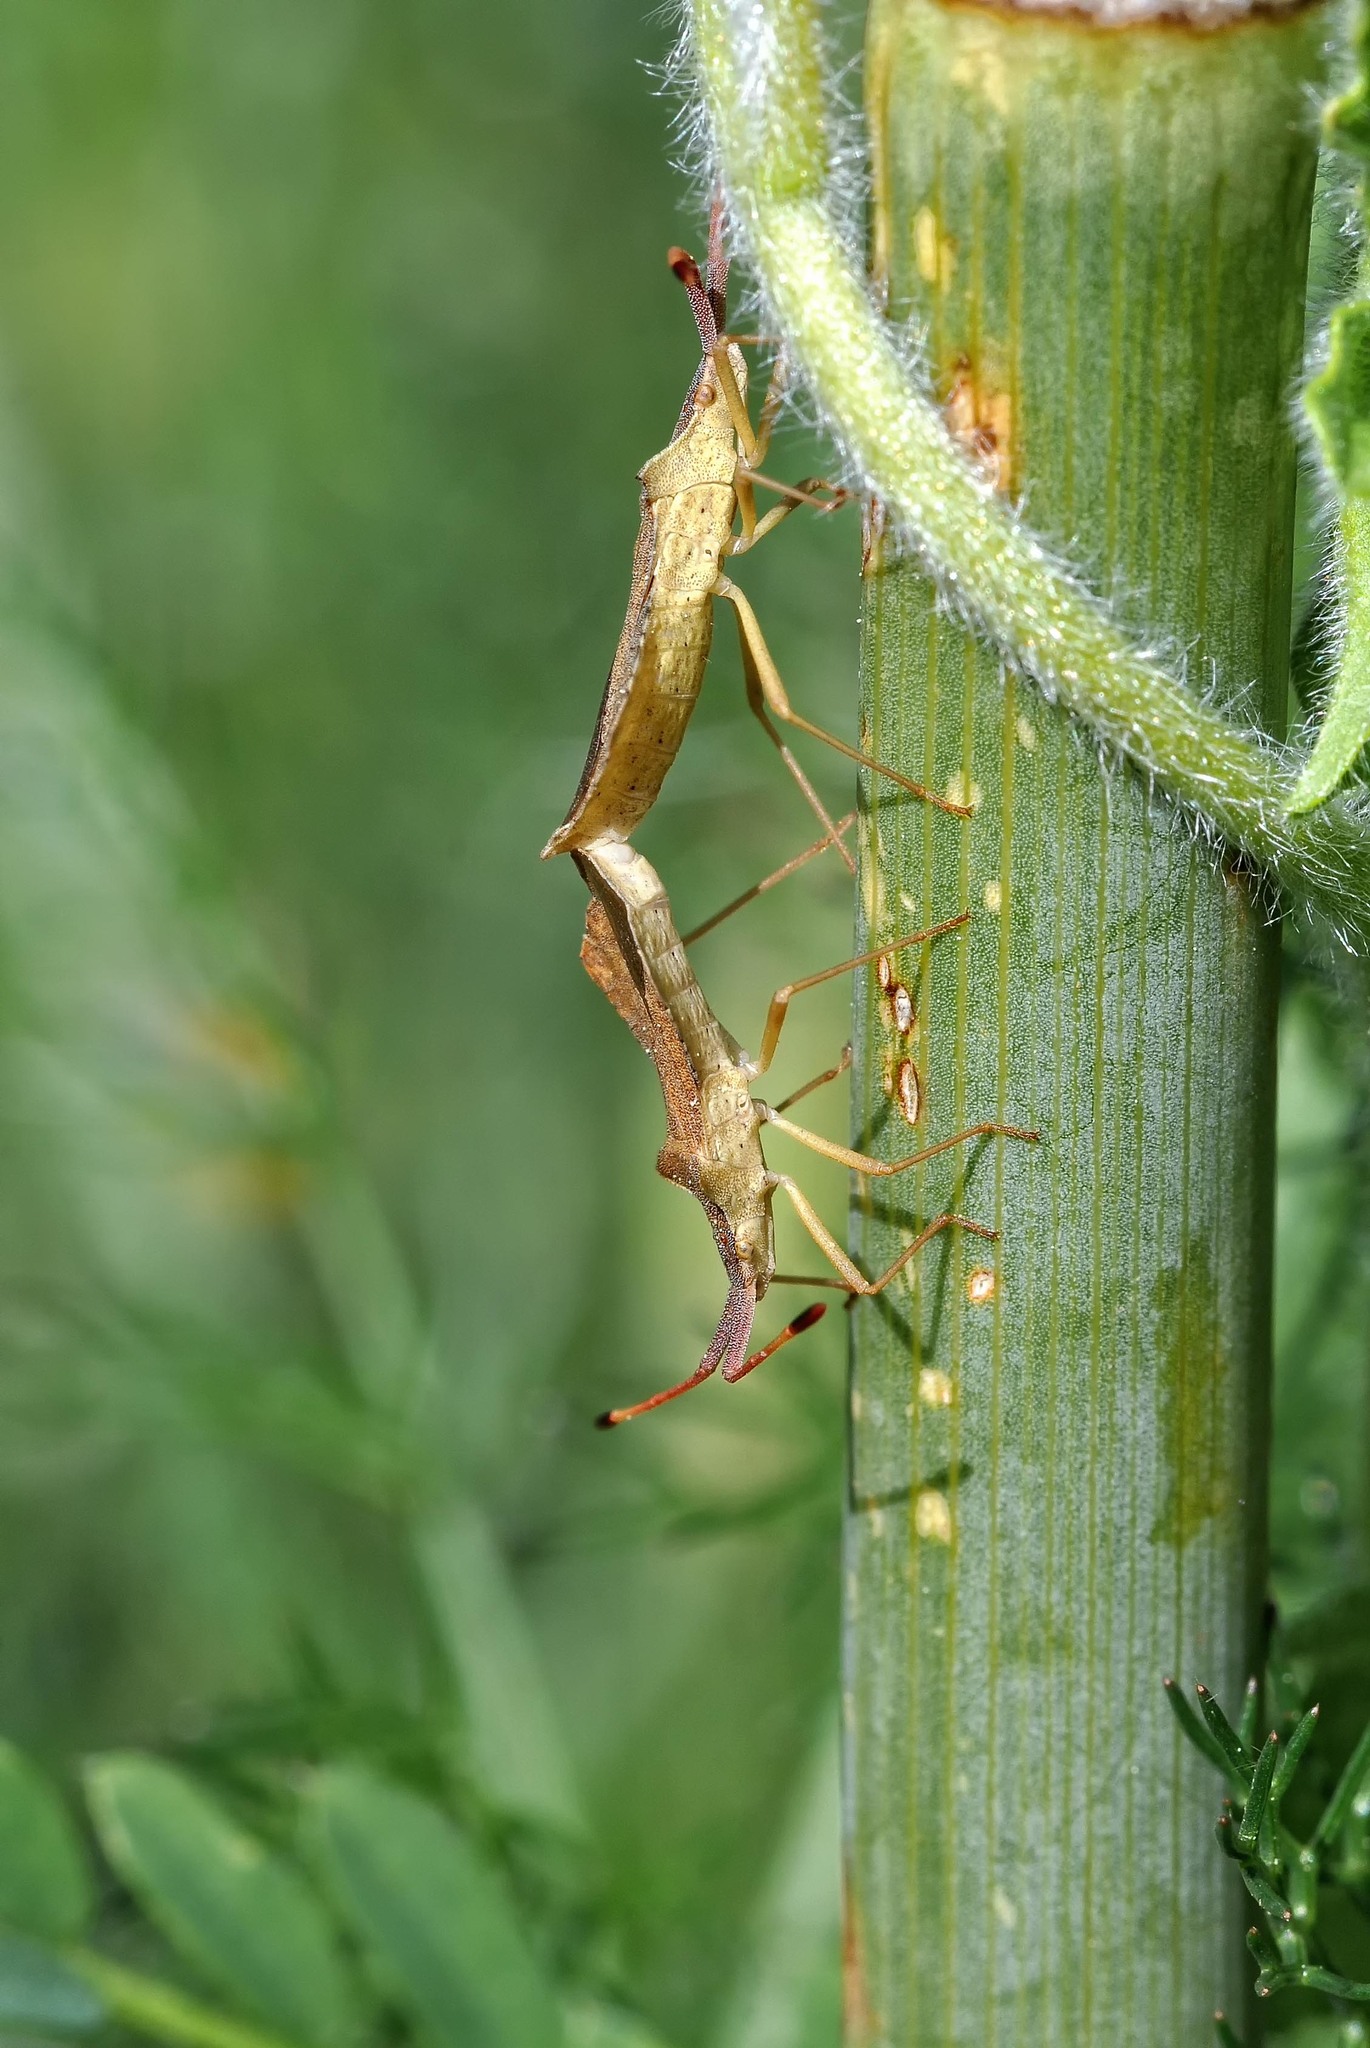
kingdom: Animalia
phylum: Arthropoda
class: Insecta
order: Hemiptera
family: Coreidae
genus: Syromastus
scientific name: Syromastus rhombeus
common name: Rhombic leatherbug
